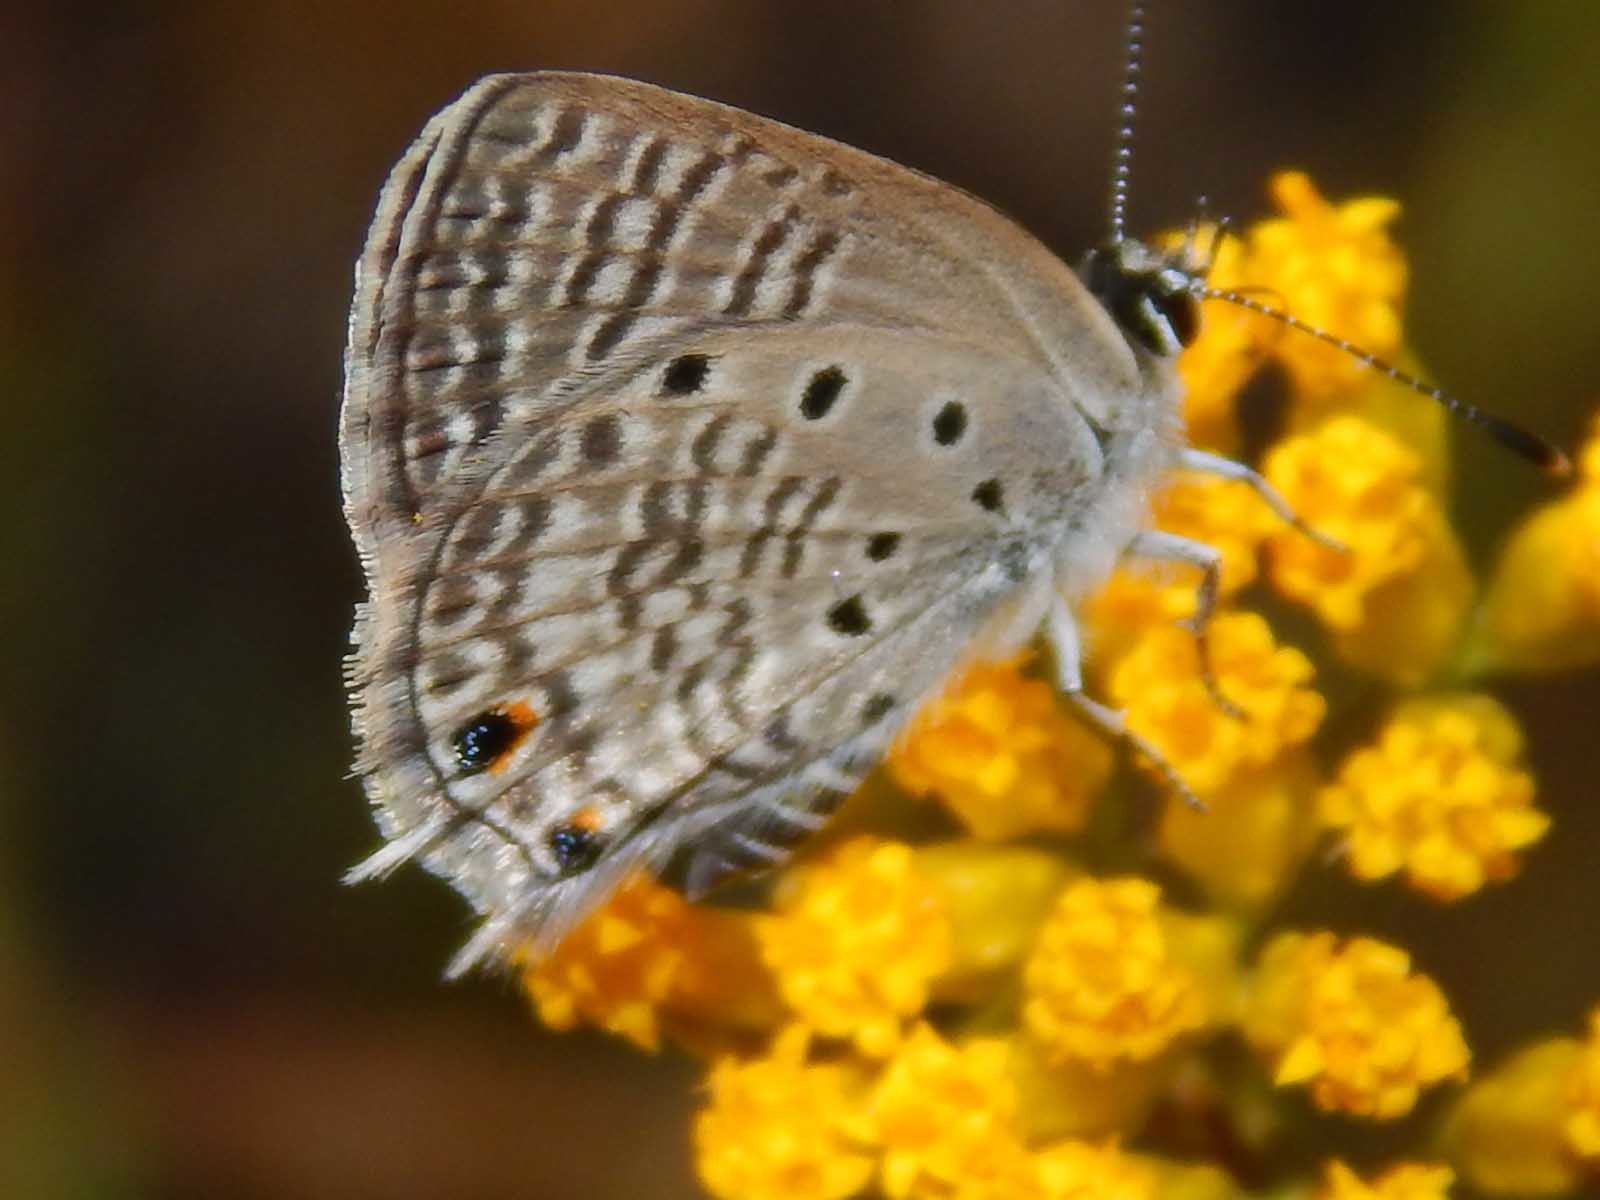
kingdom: Animalia
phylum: Arthropoda
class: Insecta
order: Lepidoptera
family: Lycaenidae
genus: Anthene
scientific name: Anthene amarah
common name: Black-striped hairtail
